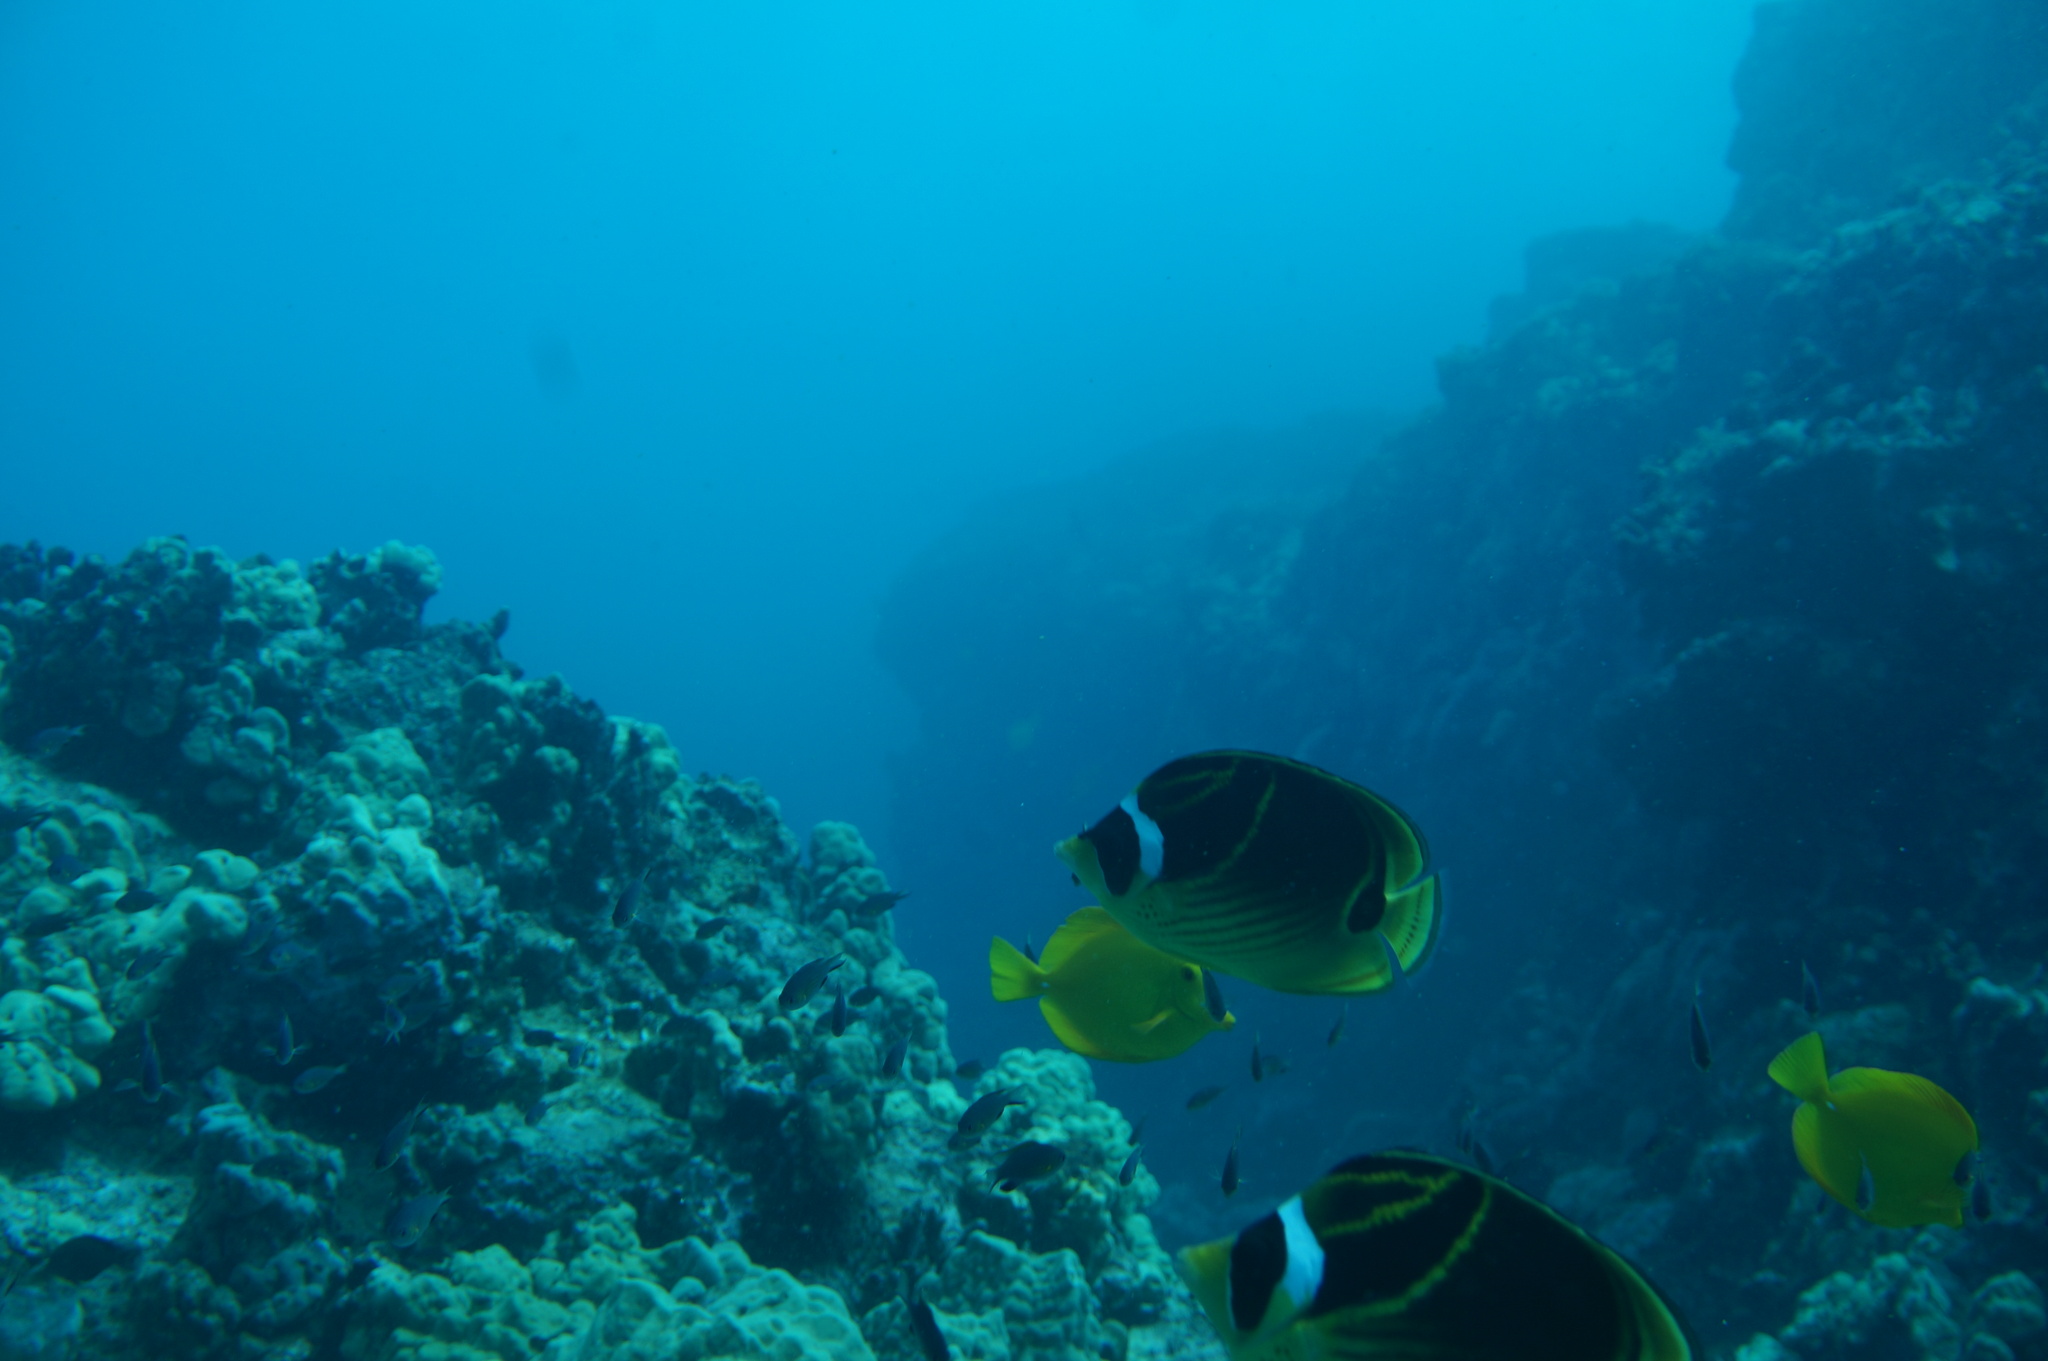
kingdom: Animalia
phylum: Chordata
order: Perciformes
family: Chaetodontidae
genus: Chaetodon
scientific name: Chaetodon lunula
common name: Raccoon butterflyfish
